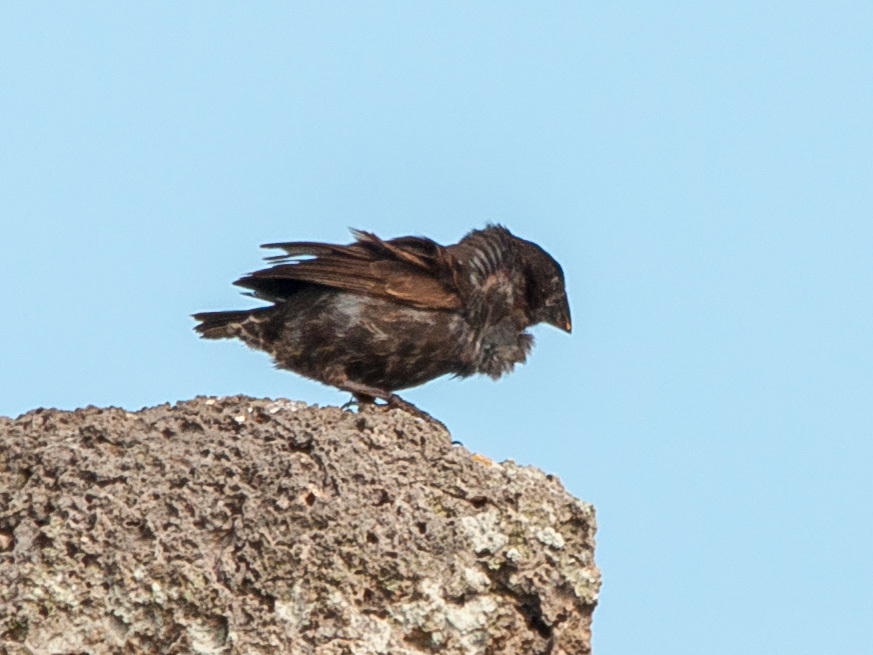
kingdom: Animalia
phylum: Chordata
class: Aves
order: Passeriformes
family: Thraupidae
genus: Geospiza
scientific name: Geospiza conirostris
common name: Large cactus finch
